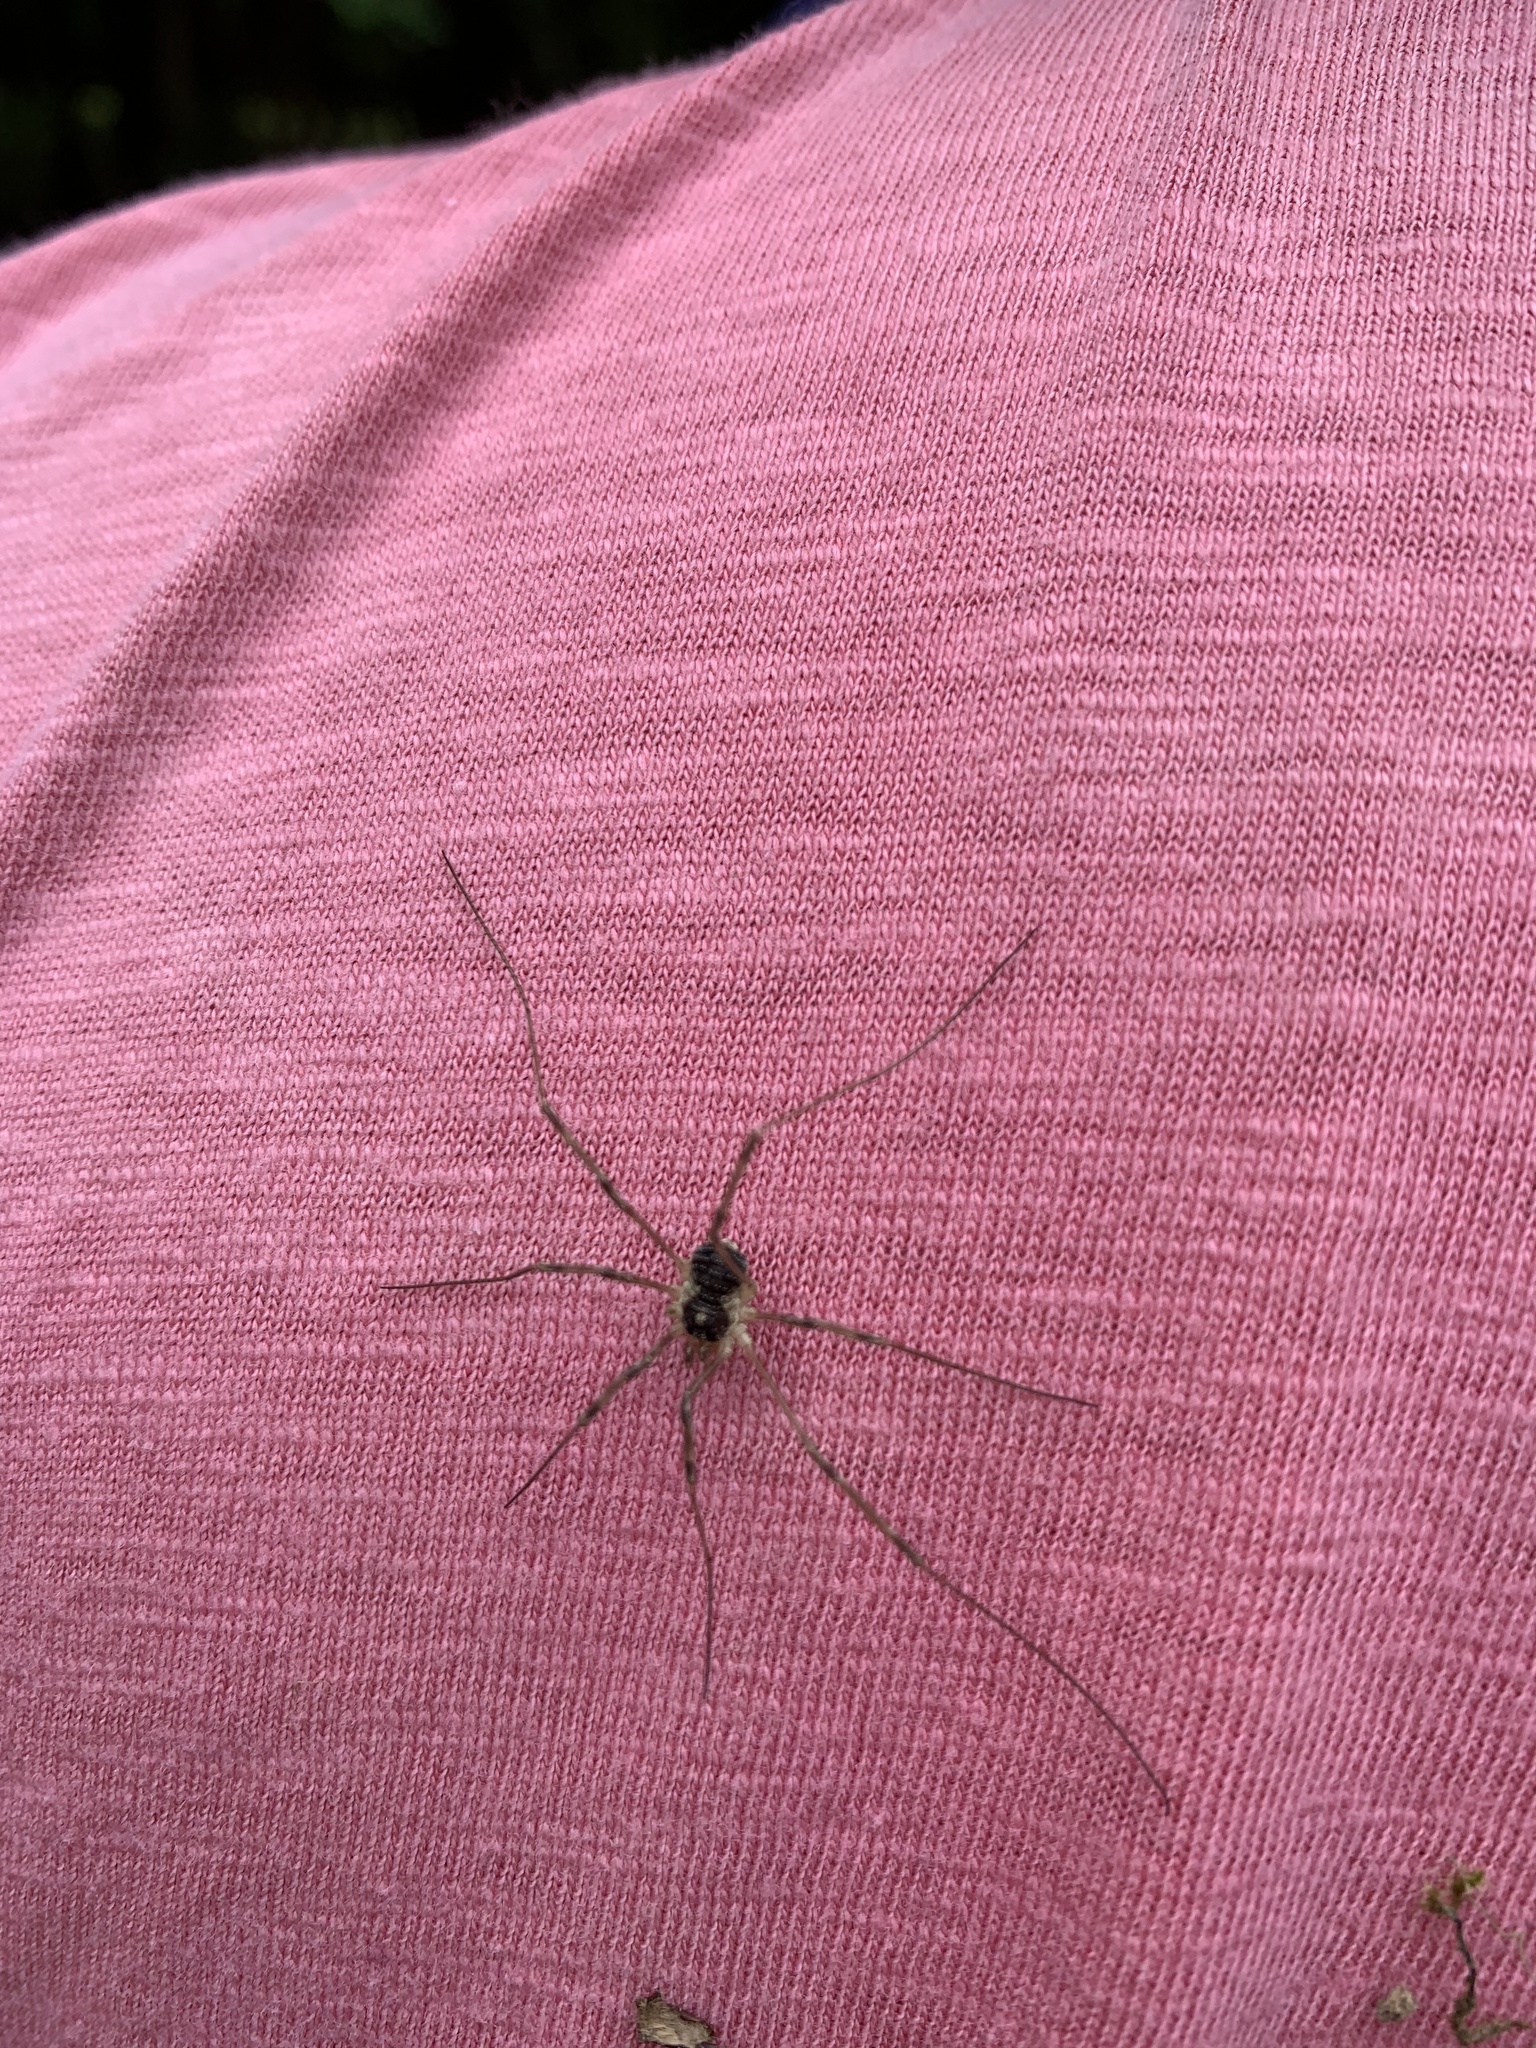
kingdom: Animalia
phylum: Arthropoda
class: Arachnida
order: Opiliones
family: Phalangiidae
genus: Mitopus
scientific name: Mitopus morio
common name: Saddleback harvestman
